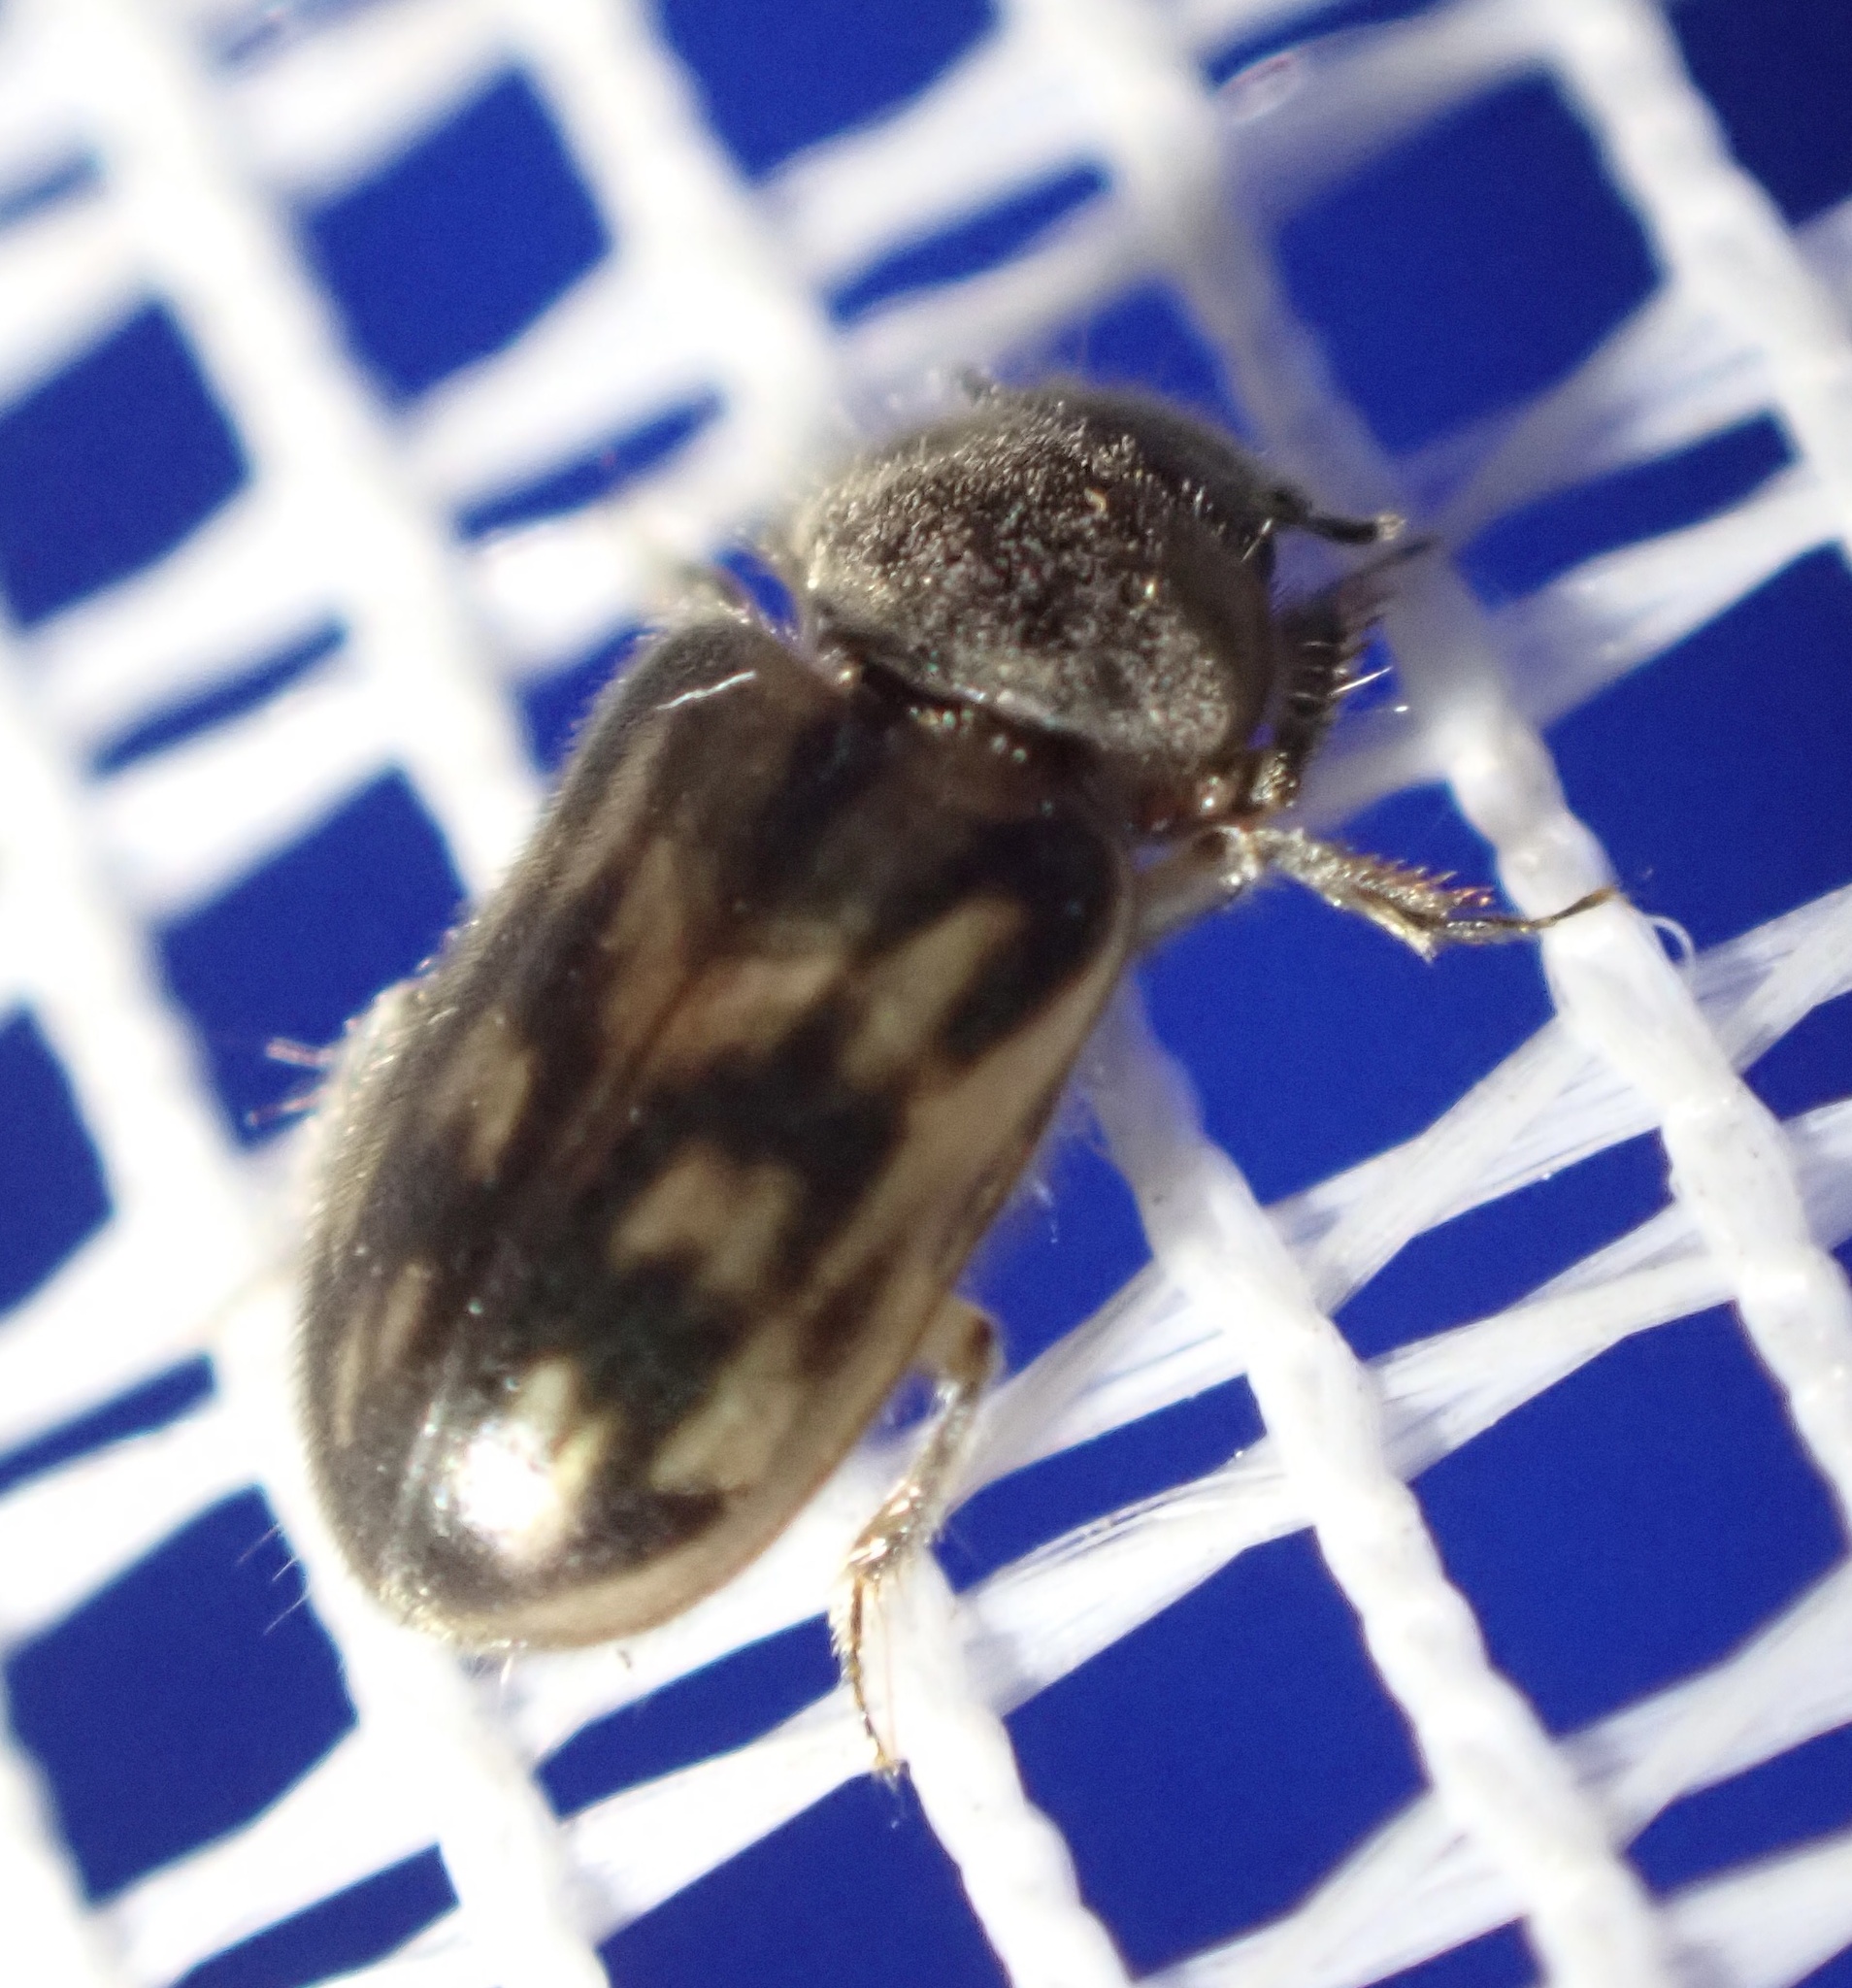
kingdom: Animalia
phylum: Arthropoda
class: Insecta
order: Coleoptera
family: Heteroceridae
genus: Heterocerus
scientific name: Heterocerus fenestratus
